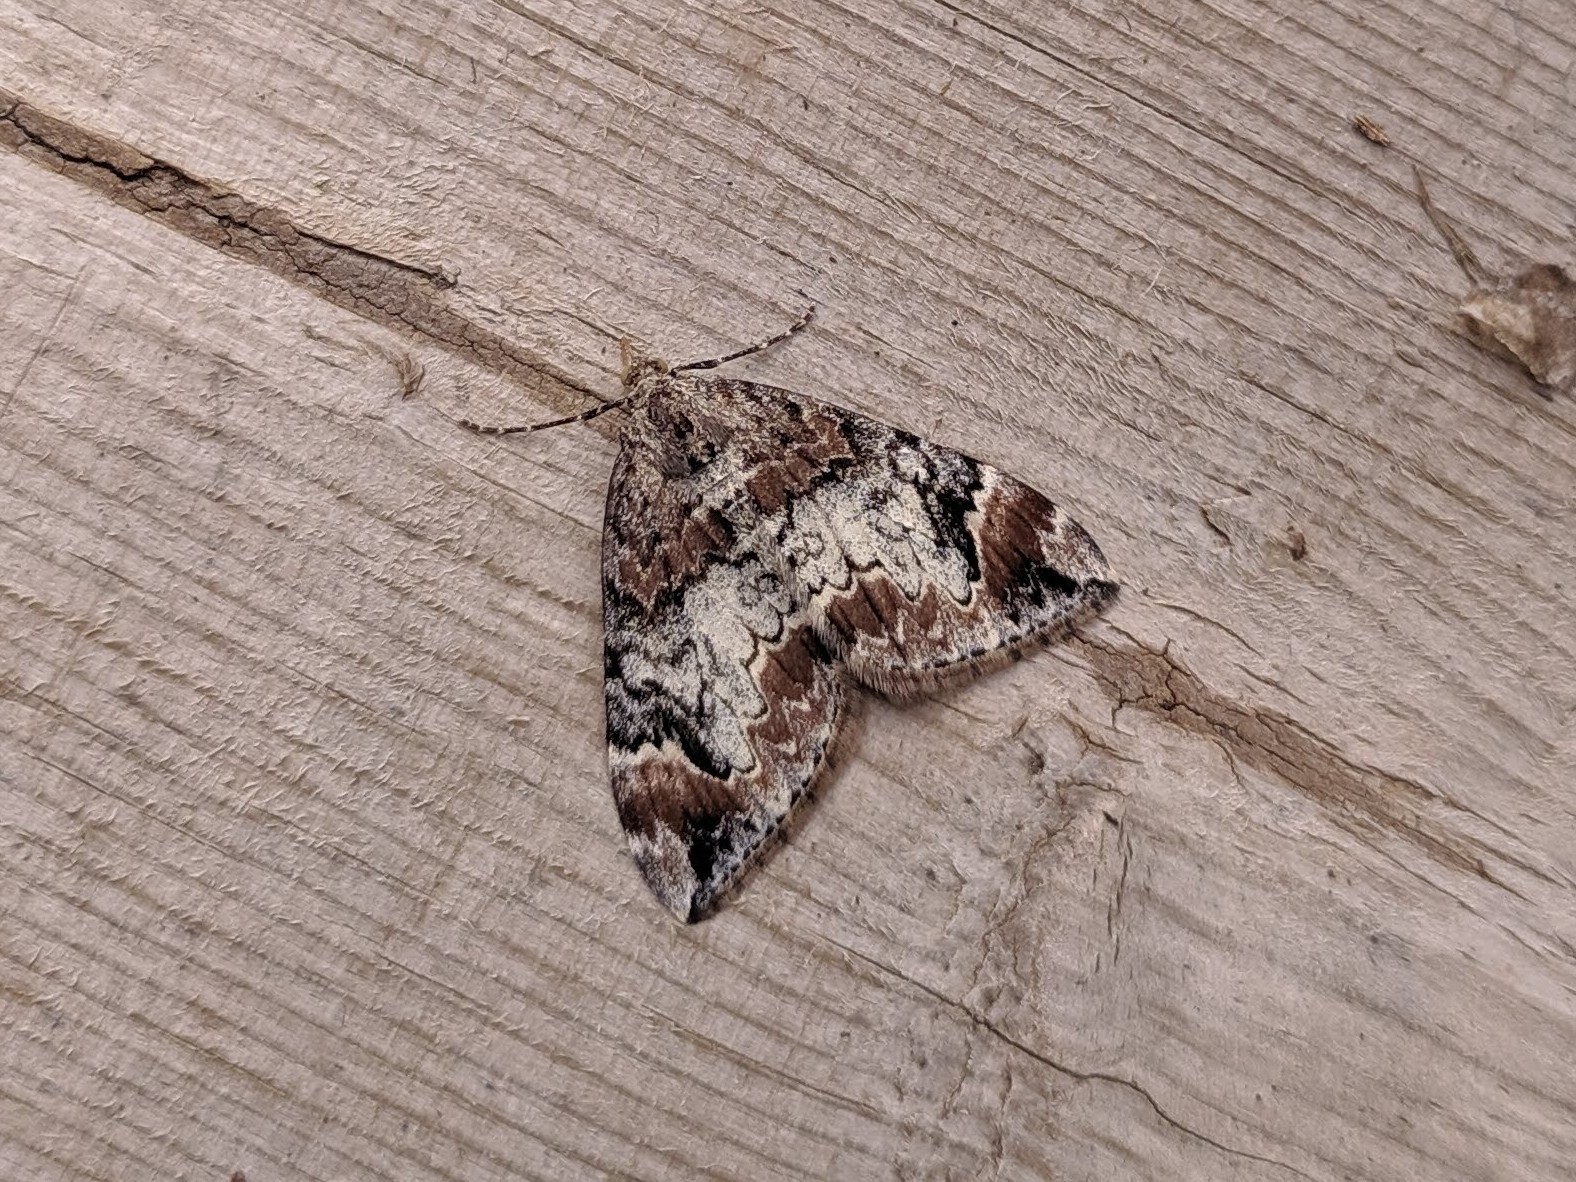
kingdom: Animalia
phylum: Arthropoda
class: Insecta
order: Lepidoptera
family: Geometridae
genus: Dysstroma
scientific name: Dysstroma citrata
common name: Dark marbled carpet
